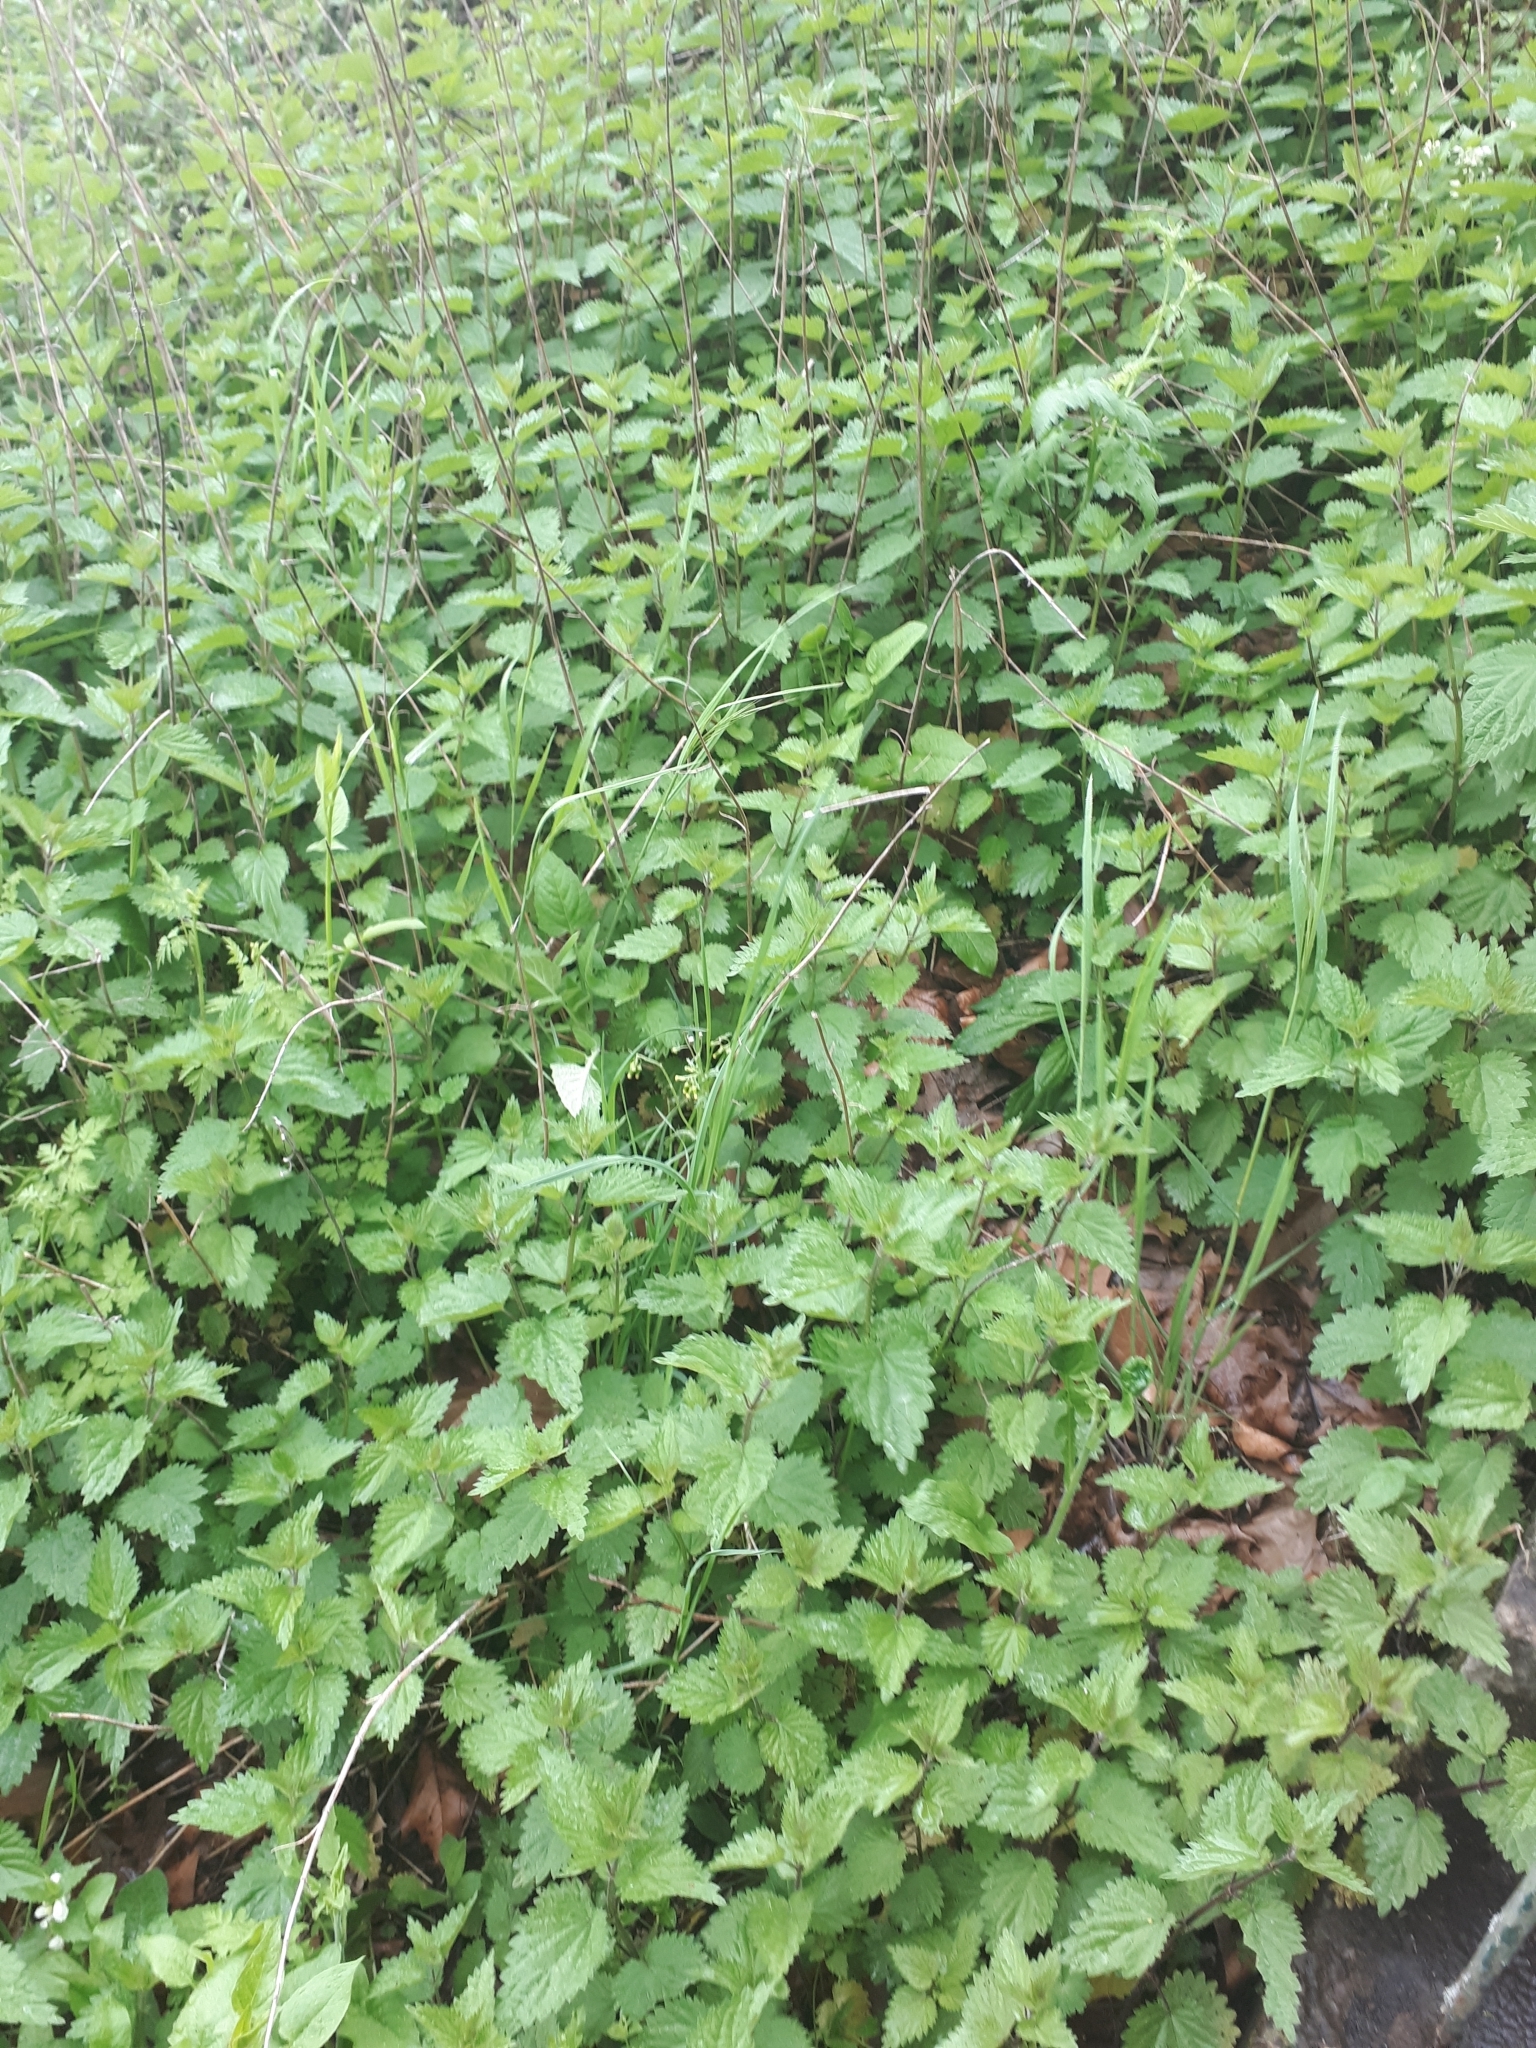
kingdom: Plantae
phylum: Tracheophyta
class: Magnoliopsida
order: Rosales
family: Urticaceae
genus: Urtica
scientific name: Urtica dioica
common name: Common nettle
